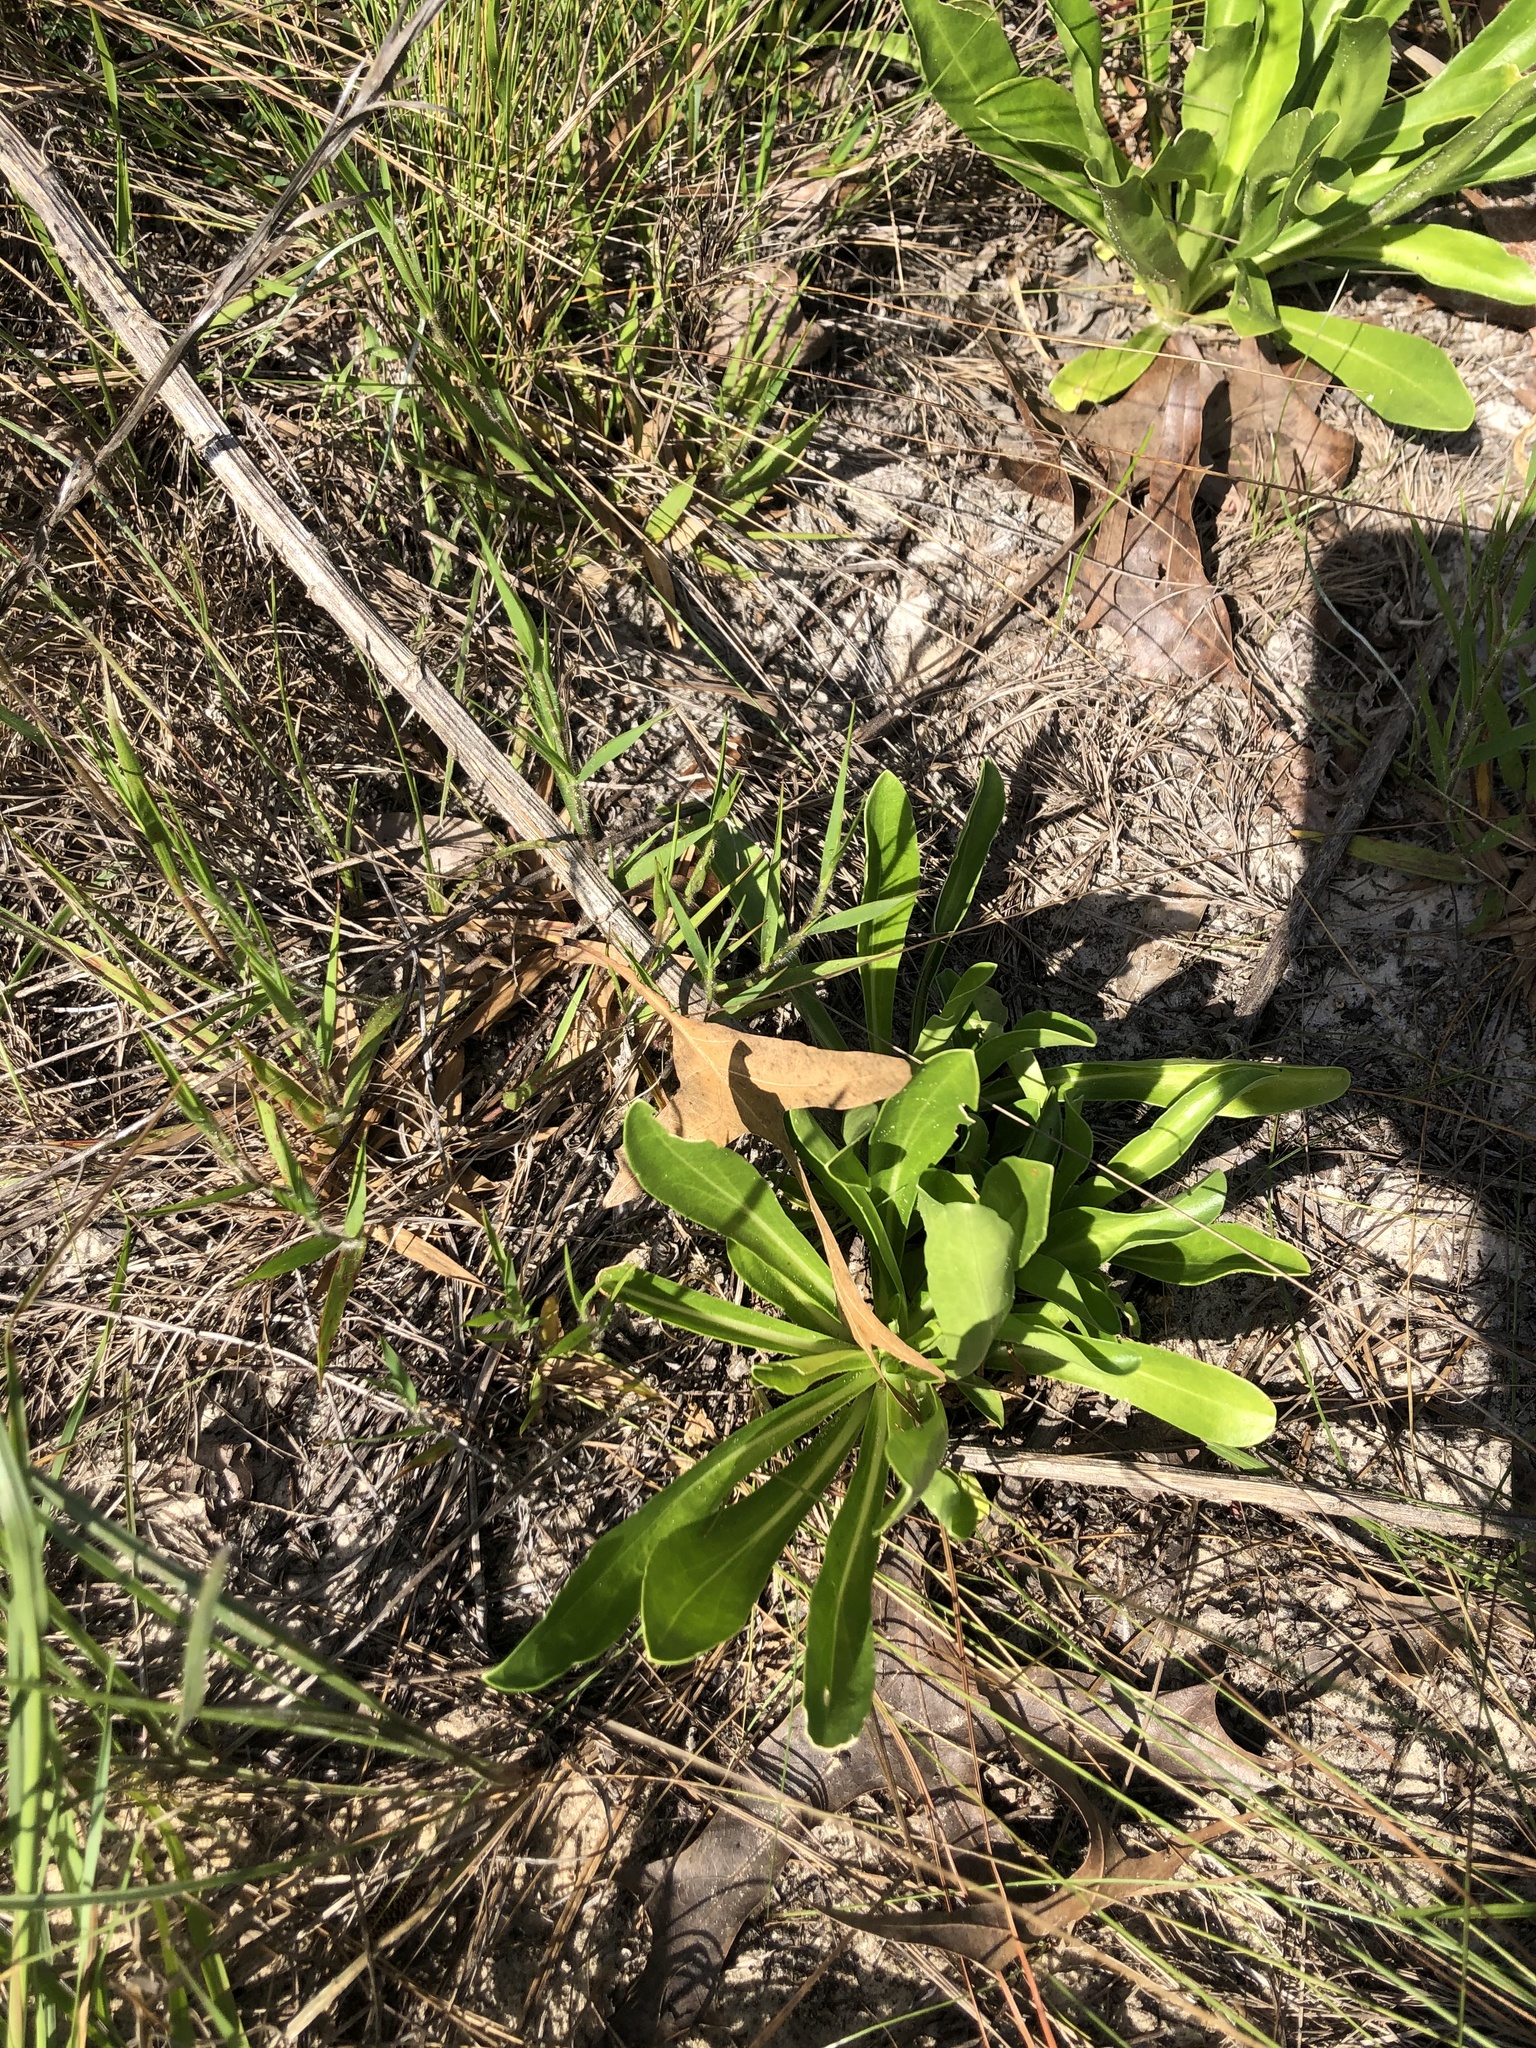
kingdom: Plantae
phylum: Tracheophyta
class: Magnoliopsida
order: Asterales
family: Asteraceae
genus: Carphephorus
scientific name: Carphephorus corymbosus
